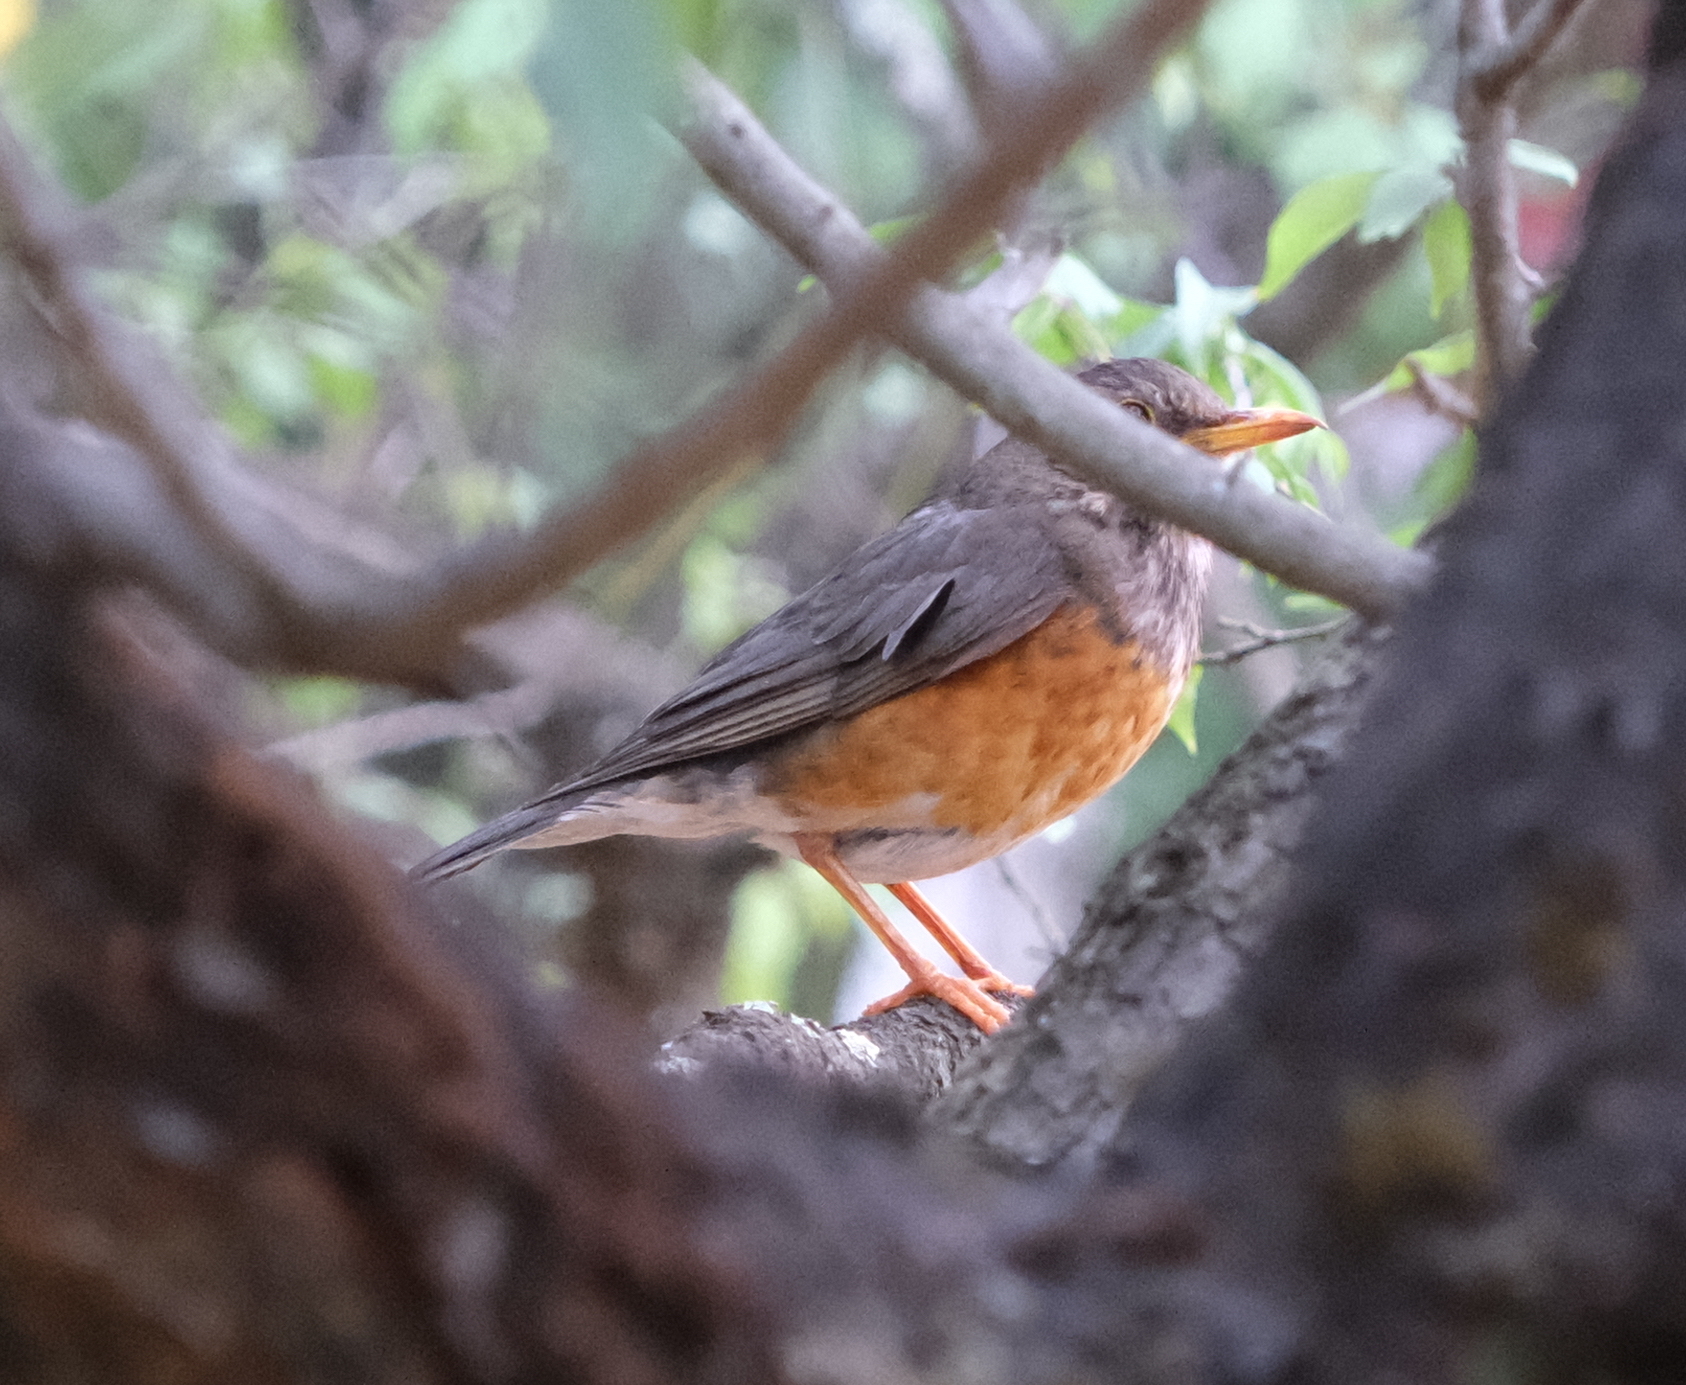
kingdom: Animalia
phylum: Chordata
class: Aves
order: Passeriformes
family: Turdidae
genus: Turdus
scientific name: Turdus hortulorum
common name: Grey-backed thrush
